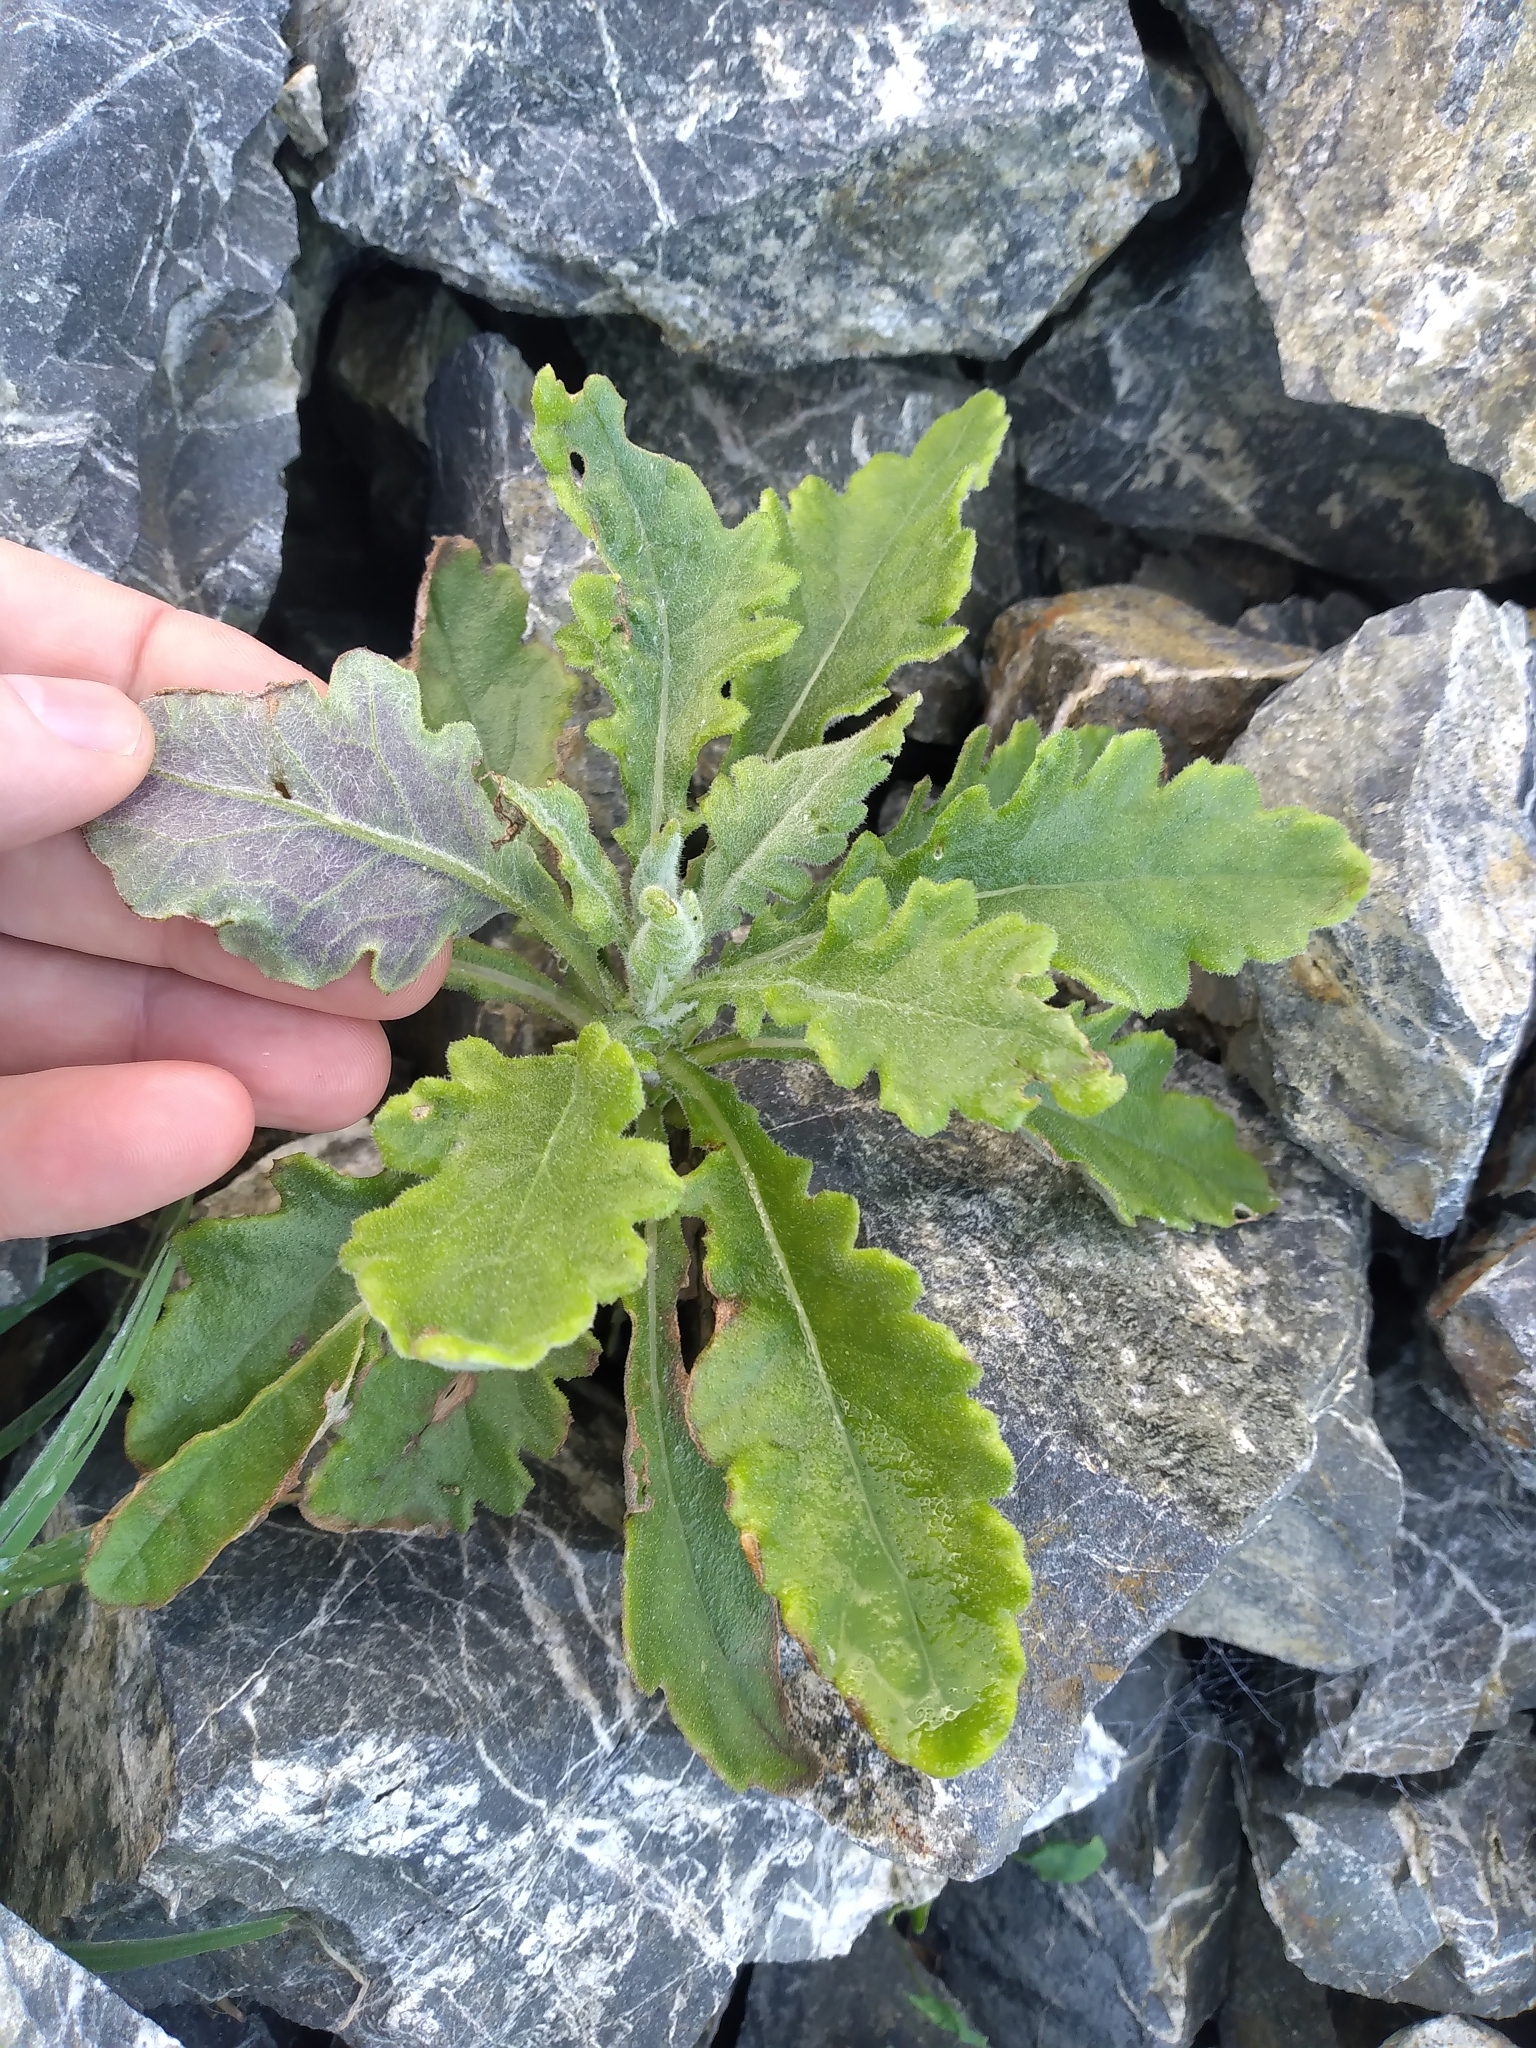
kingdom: Plantae
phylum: Tracheophyta
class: Magnoliopsida
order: Asterales
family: Asteraceae
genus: Senecio
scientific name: Senecio glomeratus
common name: Cutleaf burnweed
